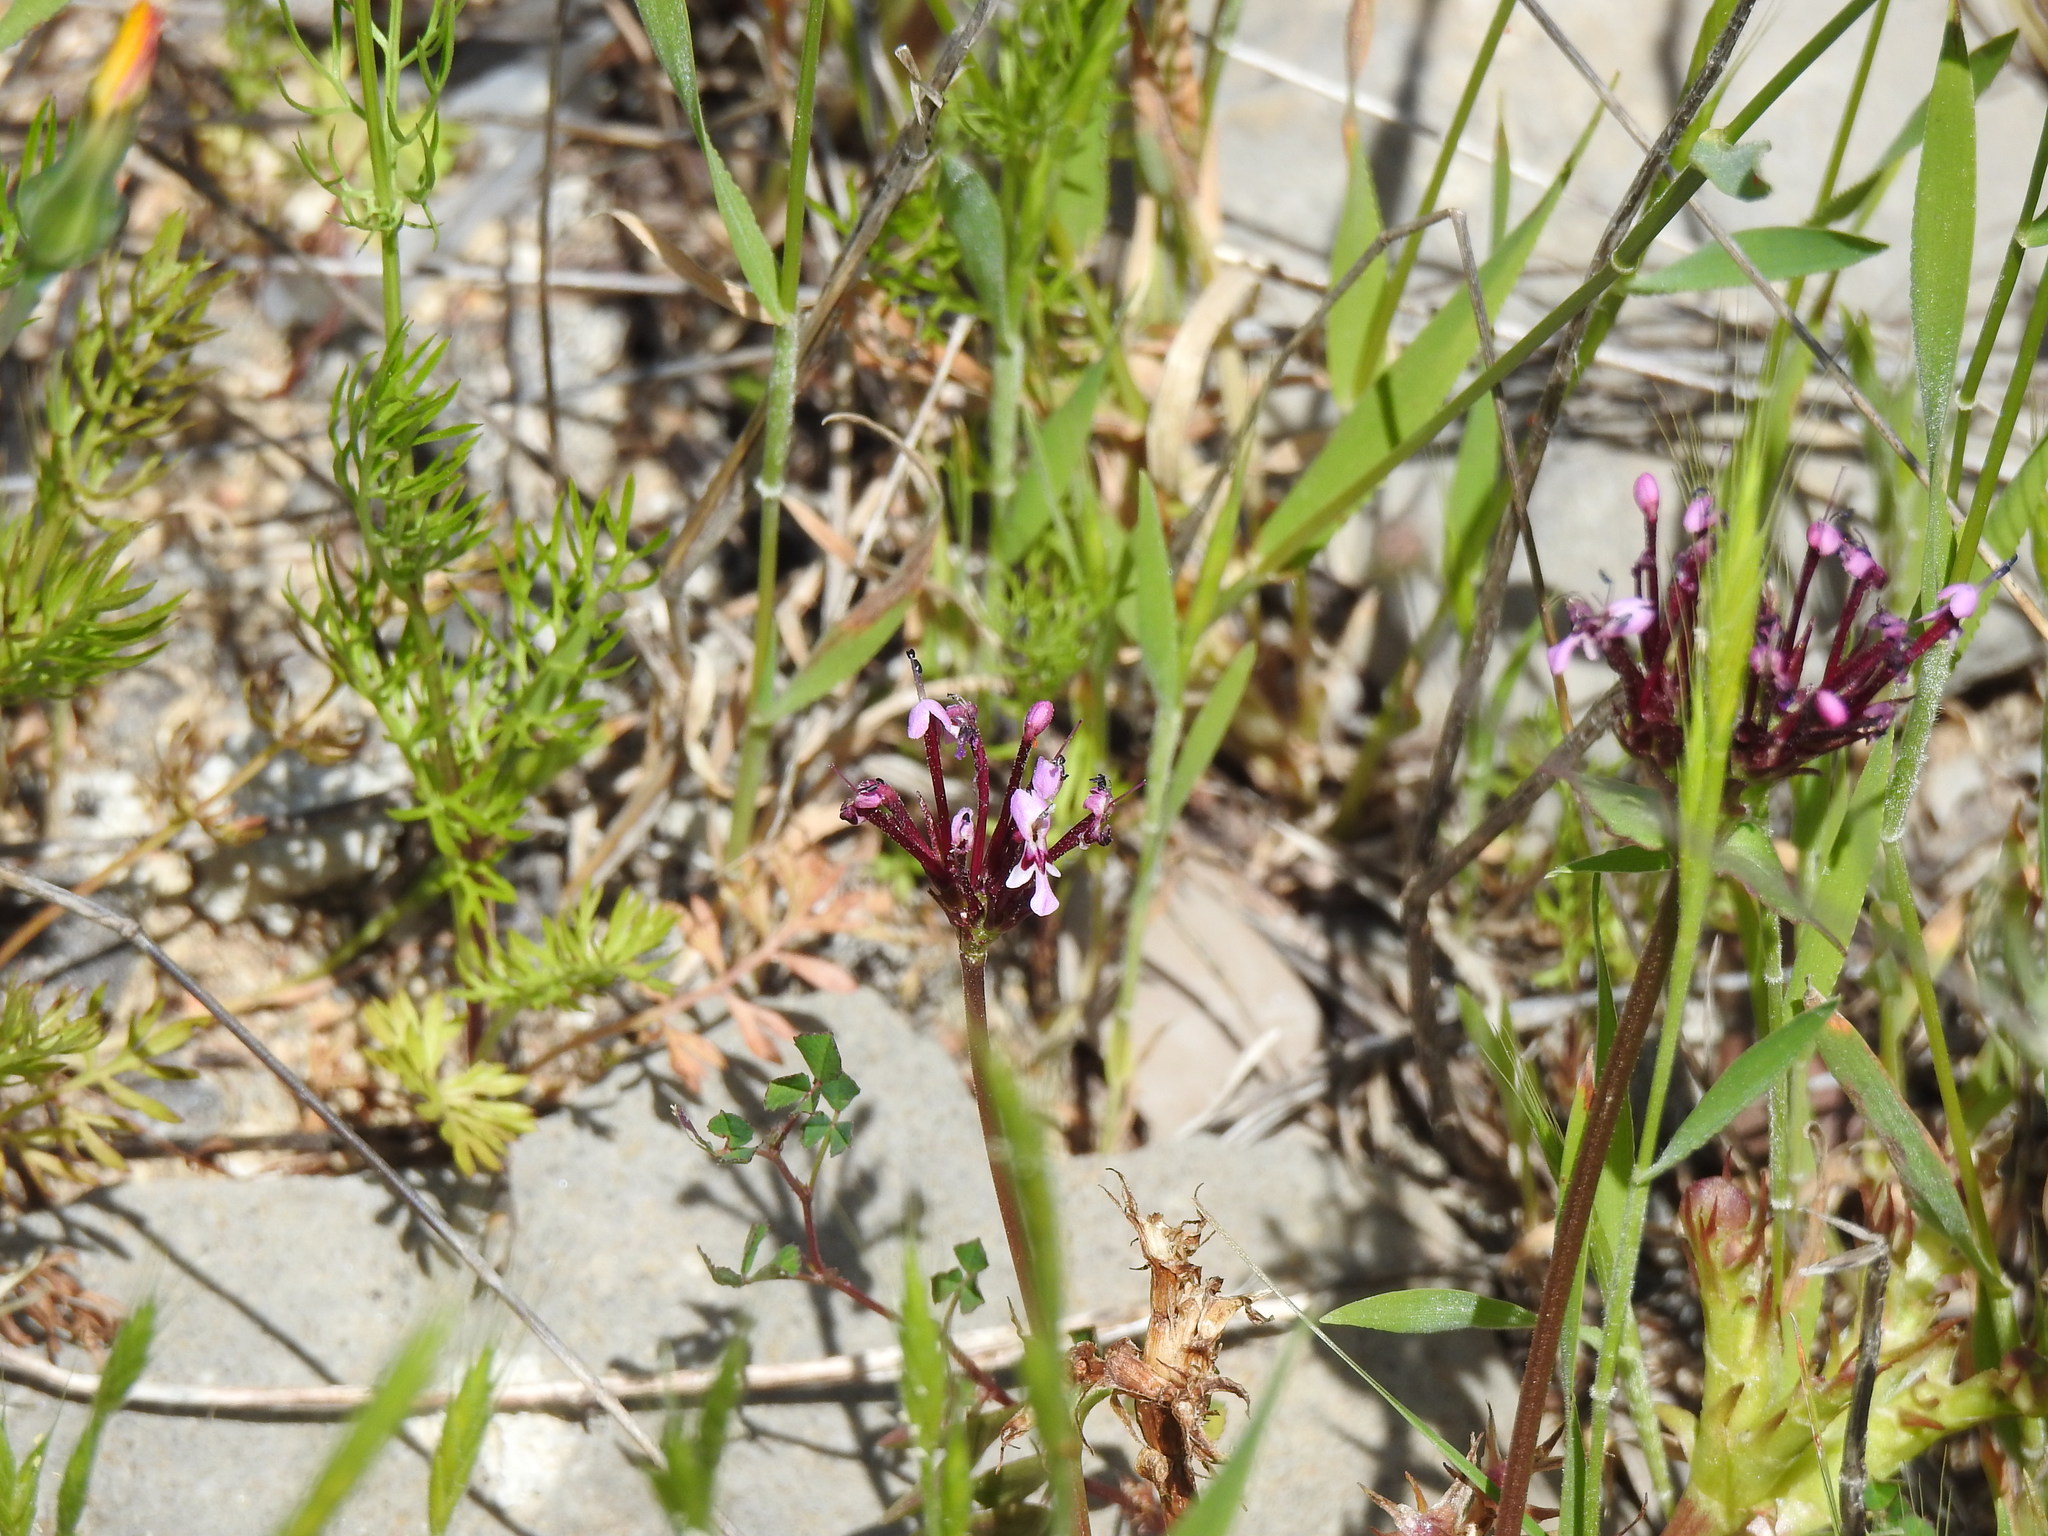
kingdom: Plantae
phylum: Tracheophyta
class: Magnoliopsida
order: Dipsacales
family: Caprifoliaceae
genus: Fedia
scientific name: Fedia cornucopiae
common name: Horn-of-plenty
